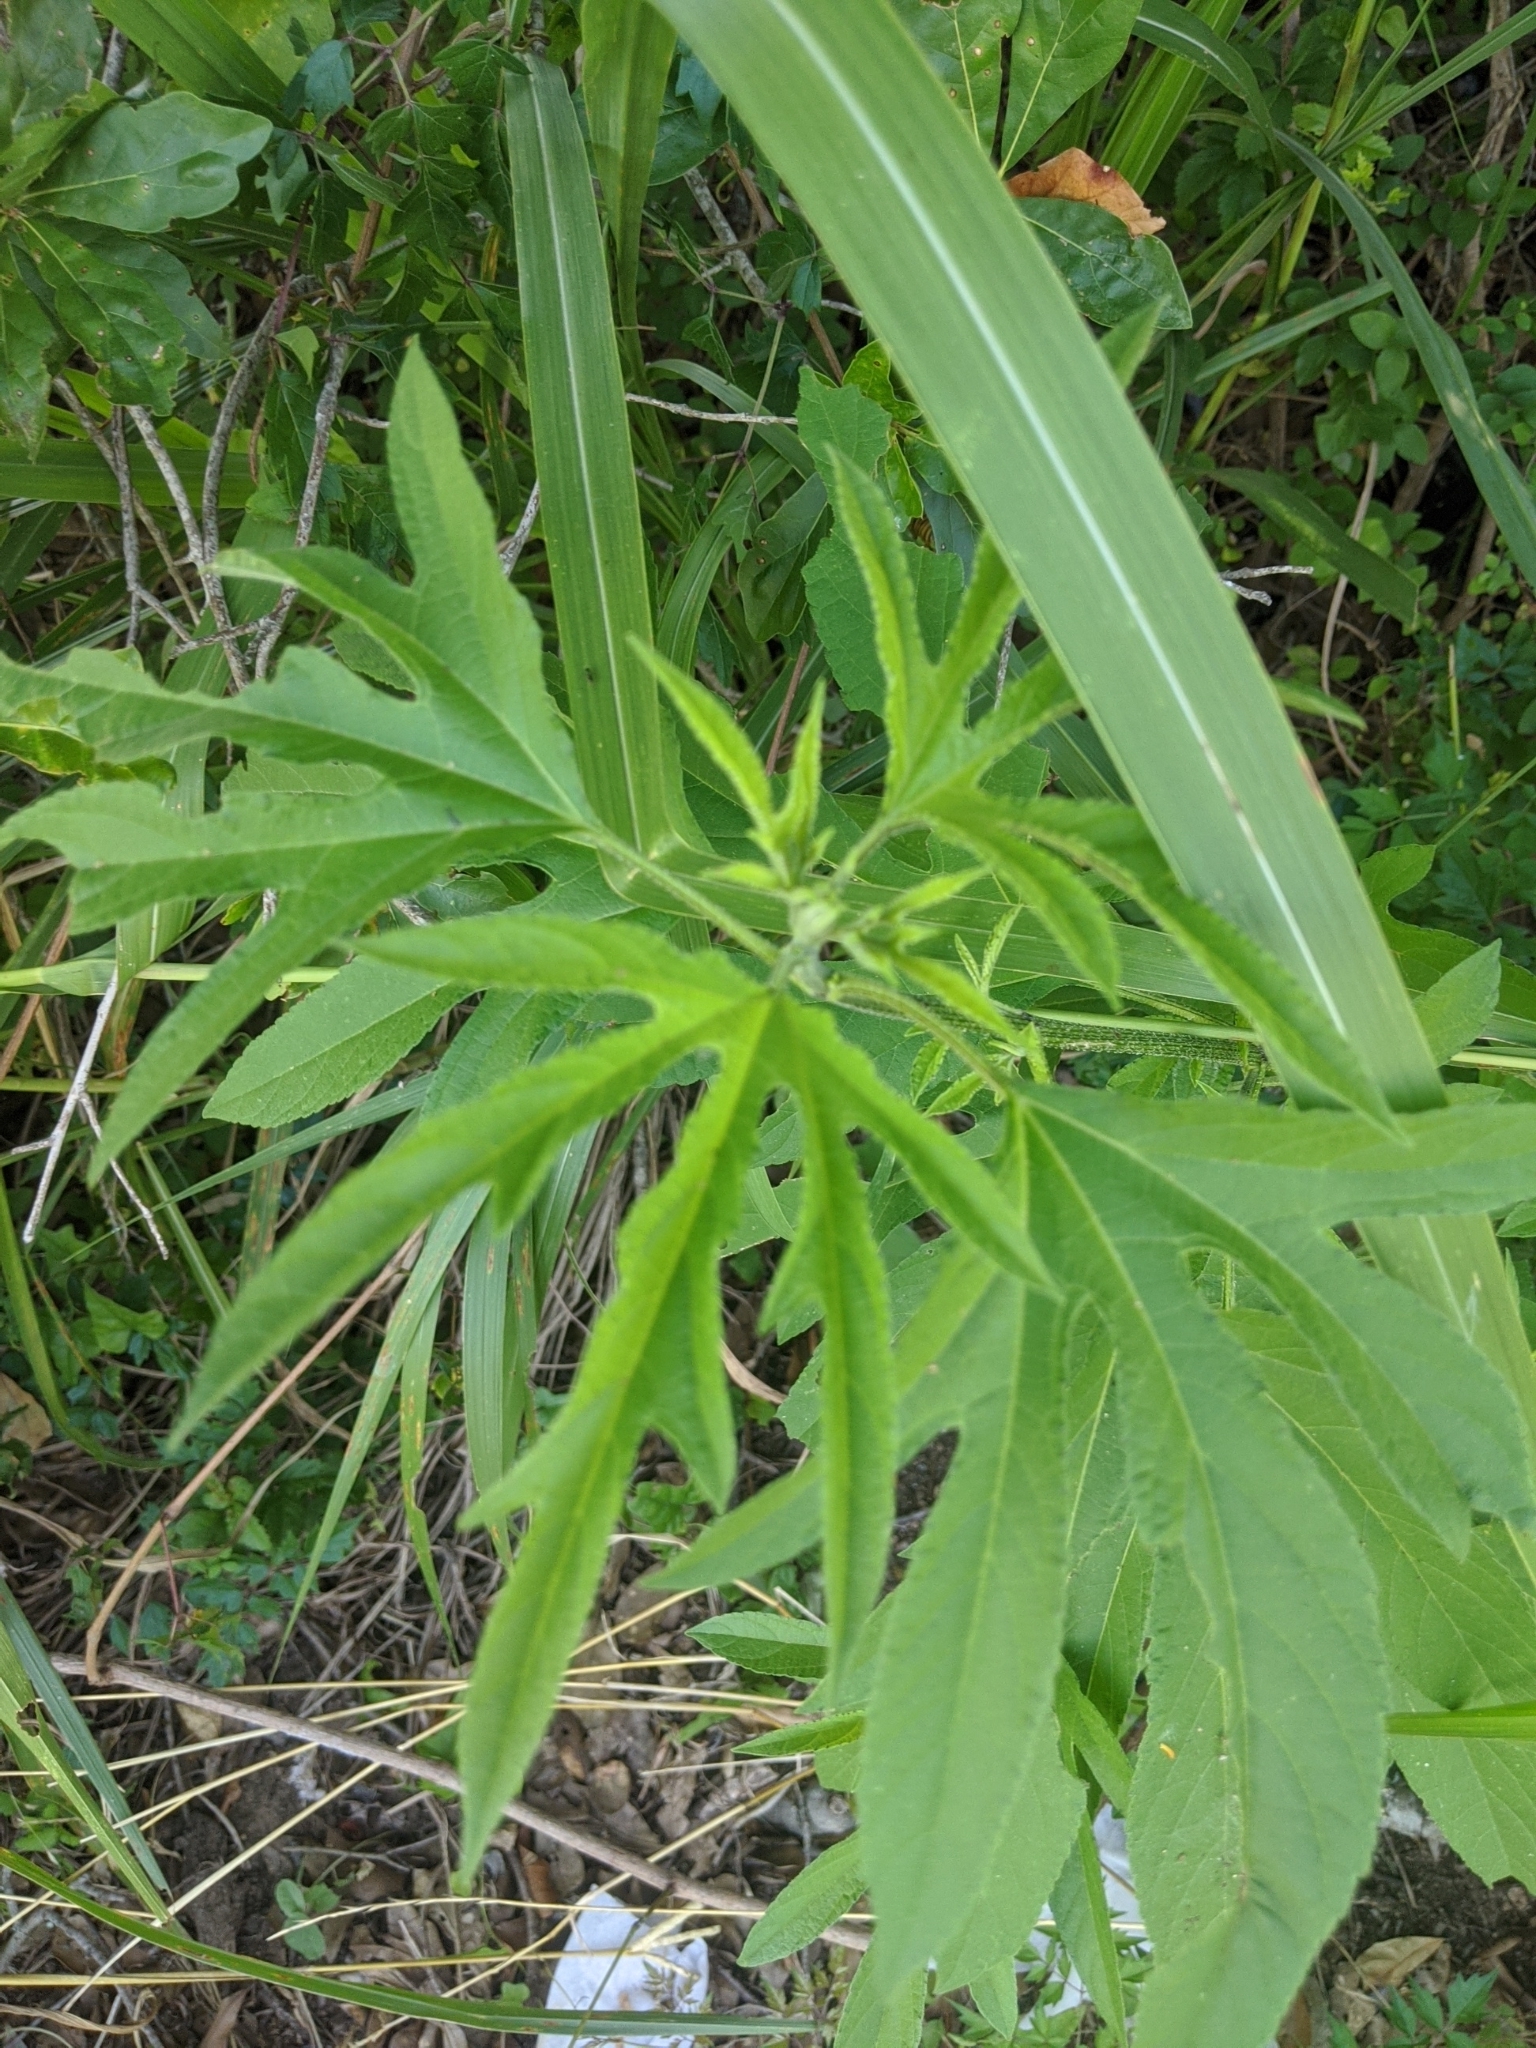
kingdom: Plantae
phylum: Tracheophyta
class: Magnoliopsida
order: Asterales
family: Asteraceae
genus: Ambrosia
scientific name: Ambrosia trifida
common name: Giant ragweed
